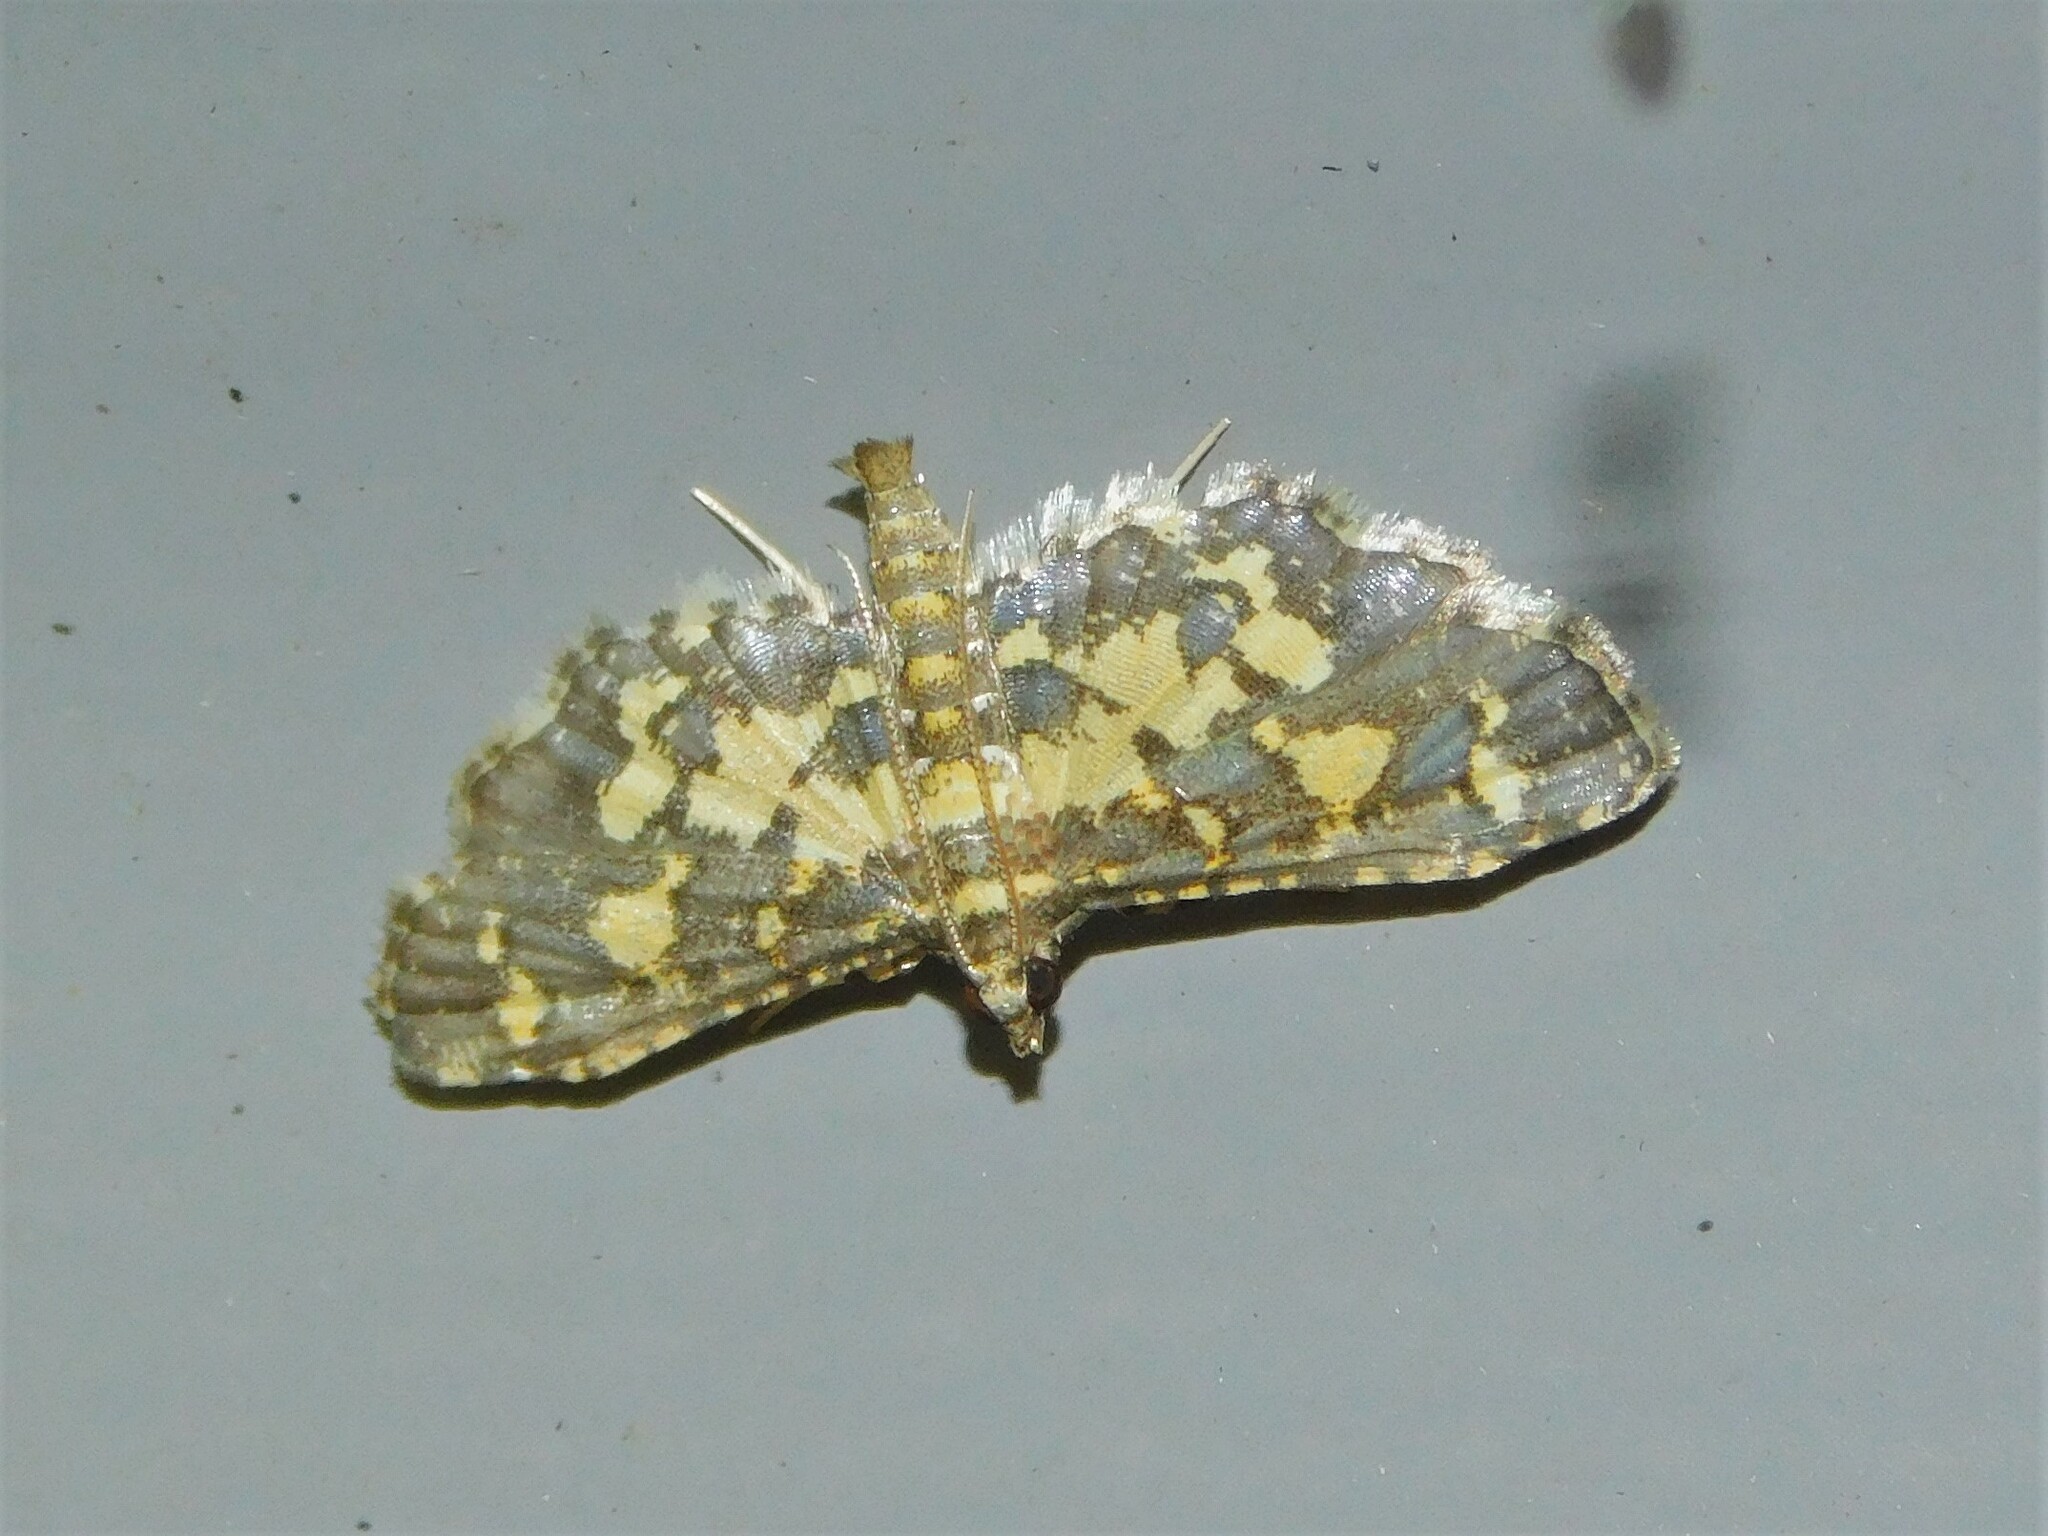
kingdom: Animalia
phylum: Arthropoda
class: Insecta
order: Lepidoptera
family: Crambidae
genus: Eurrhyparodes
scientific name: Eurrhyparodes bracteolalis
